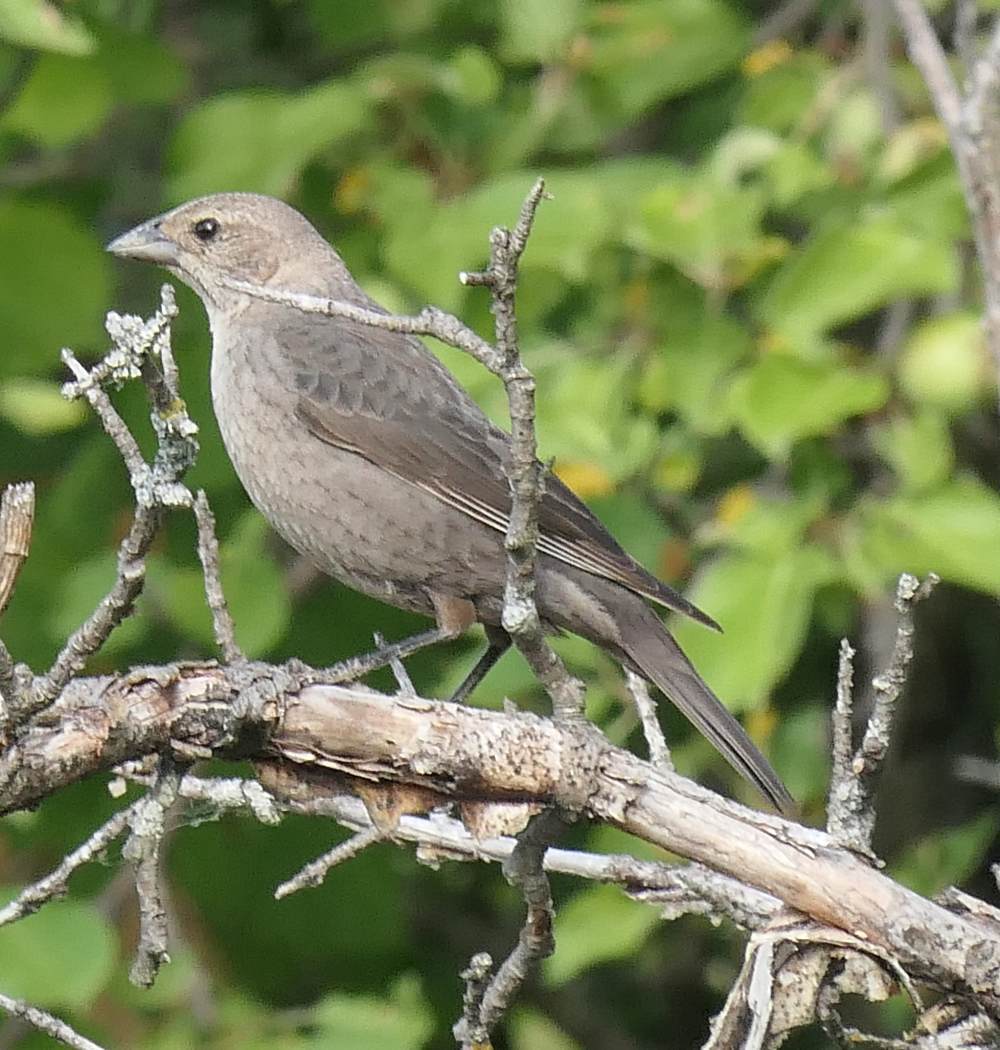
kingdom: Animalia
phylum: Chordata
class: Aves
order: Passeriformes
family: Icteridae
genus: Molothrus
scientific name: Molothrus ater
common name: Brown-headed cowbird
